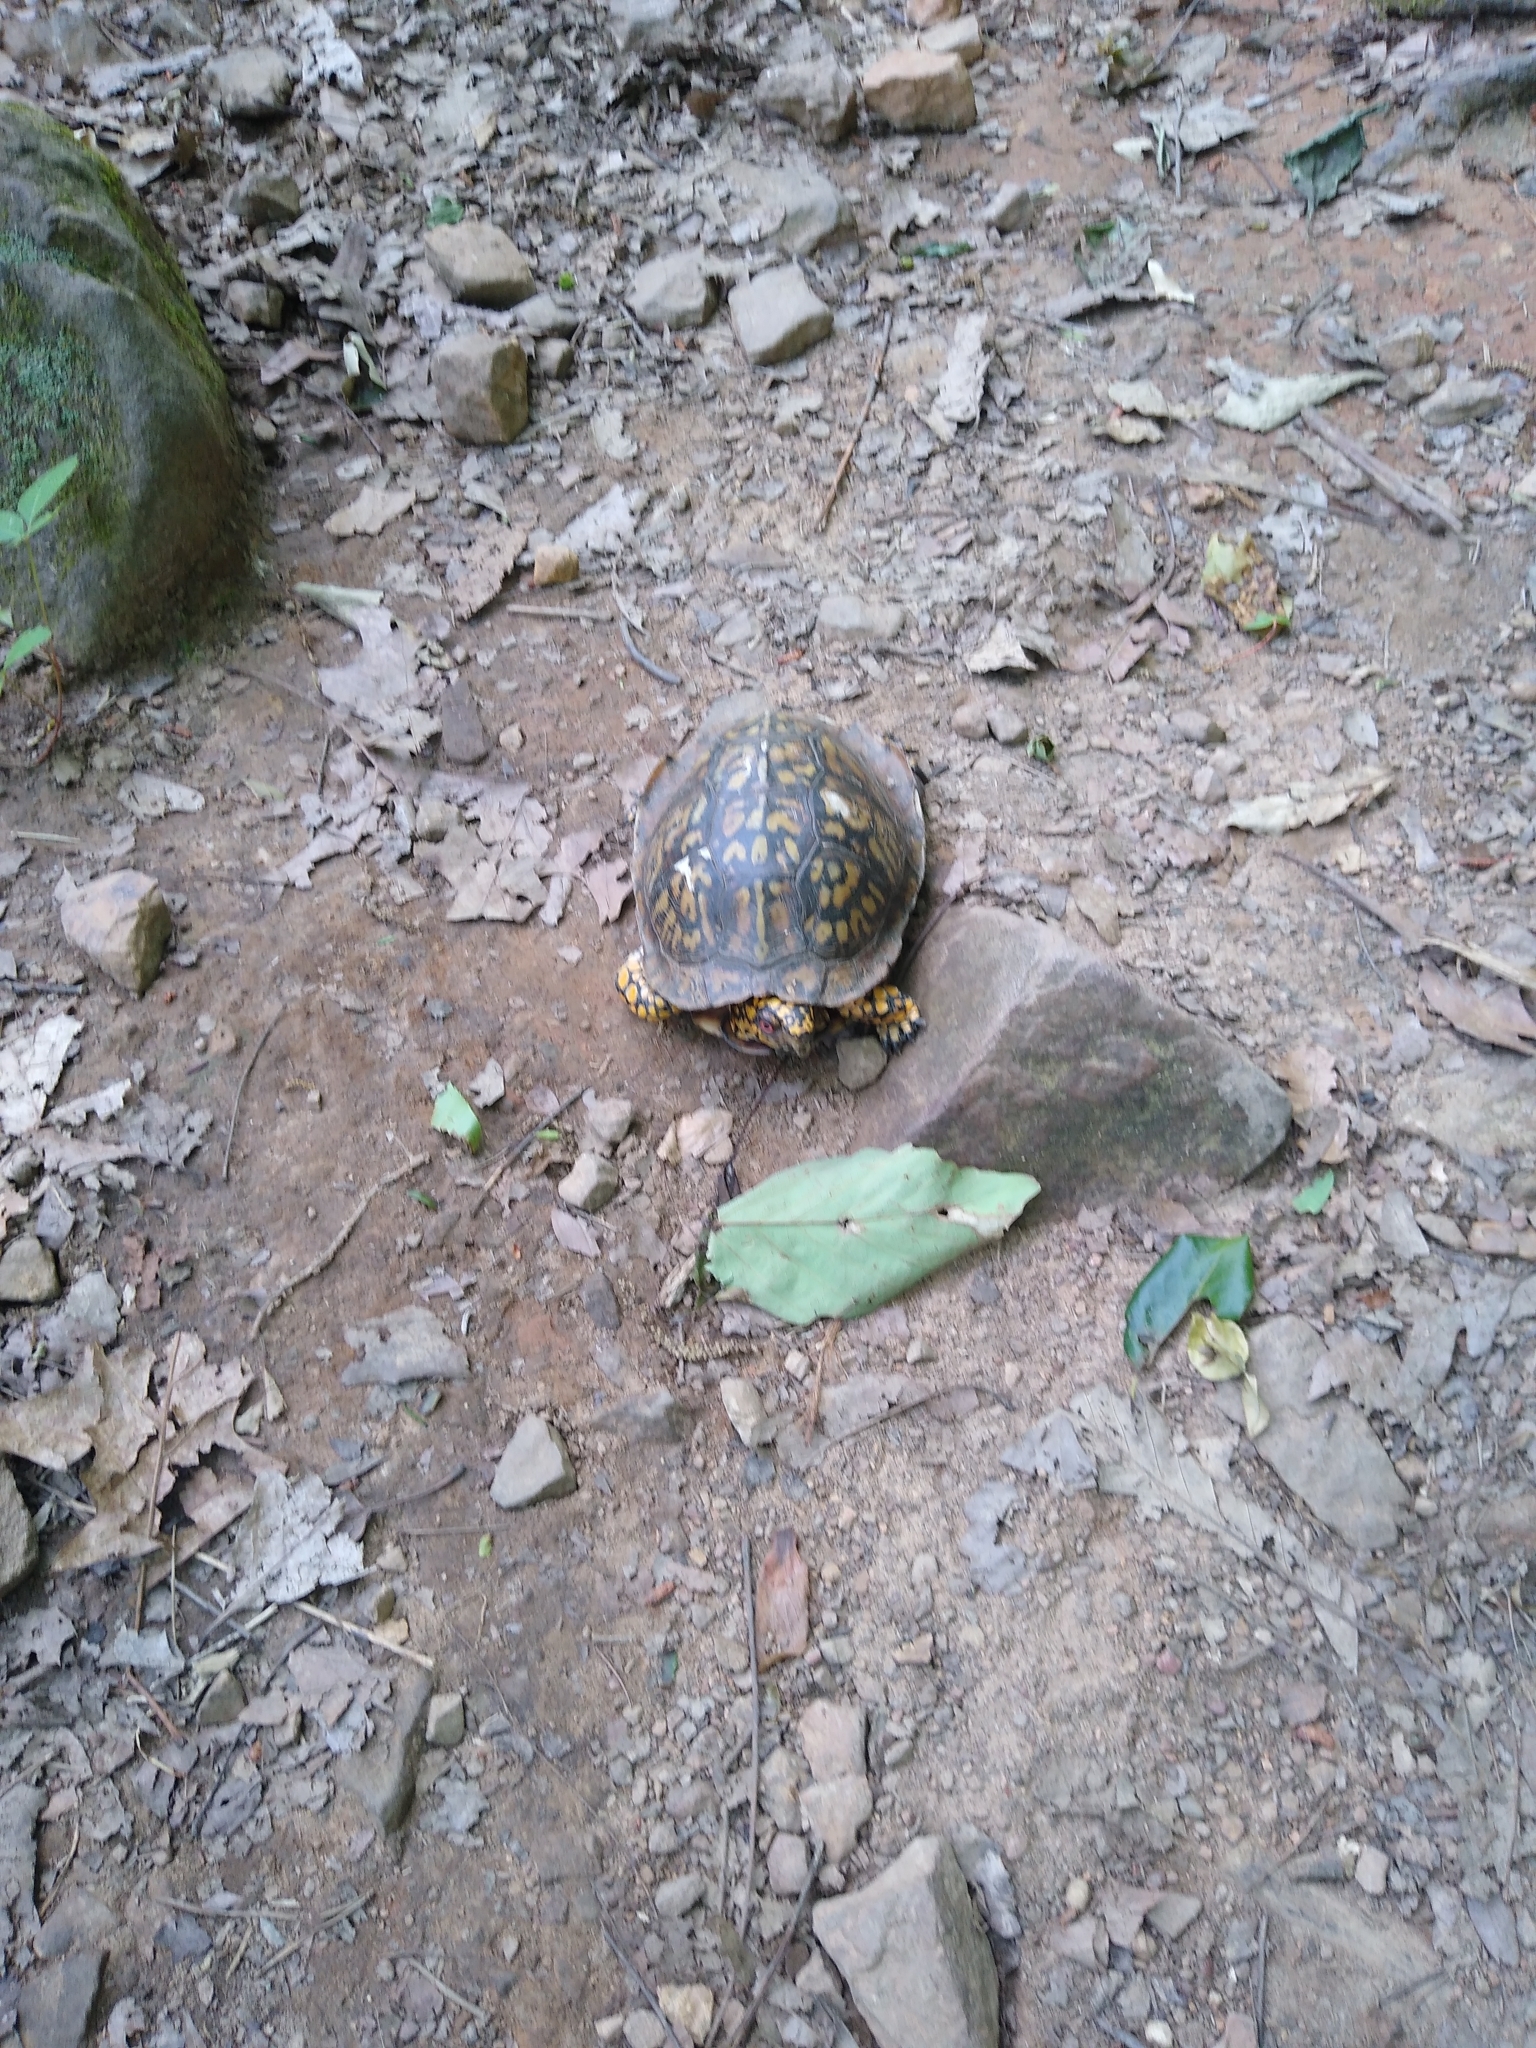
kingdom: Animalia
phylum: Chordata
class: Testudines
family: Emydidae
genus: Terrapene
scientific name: Terrapene carolina
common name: Common box turtle
